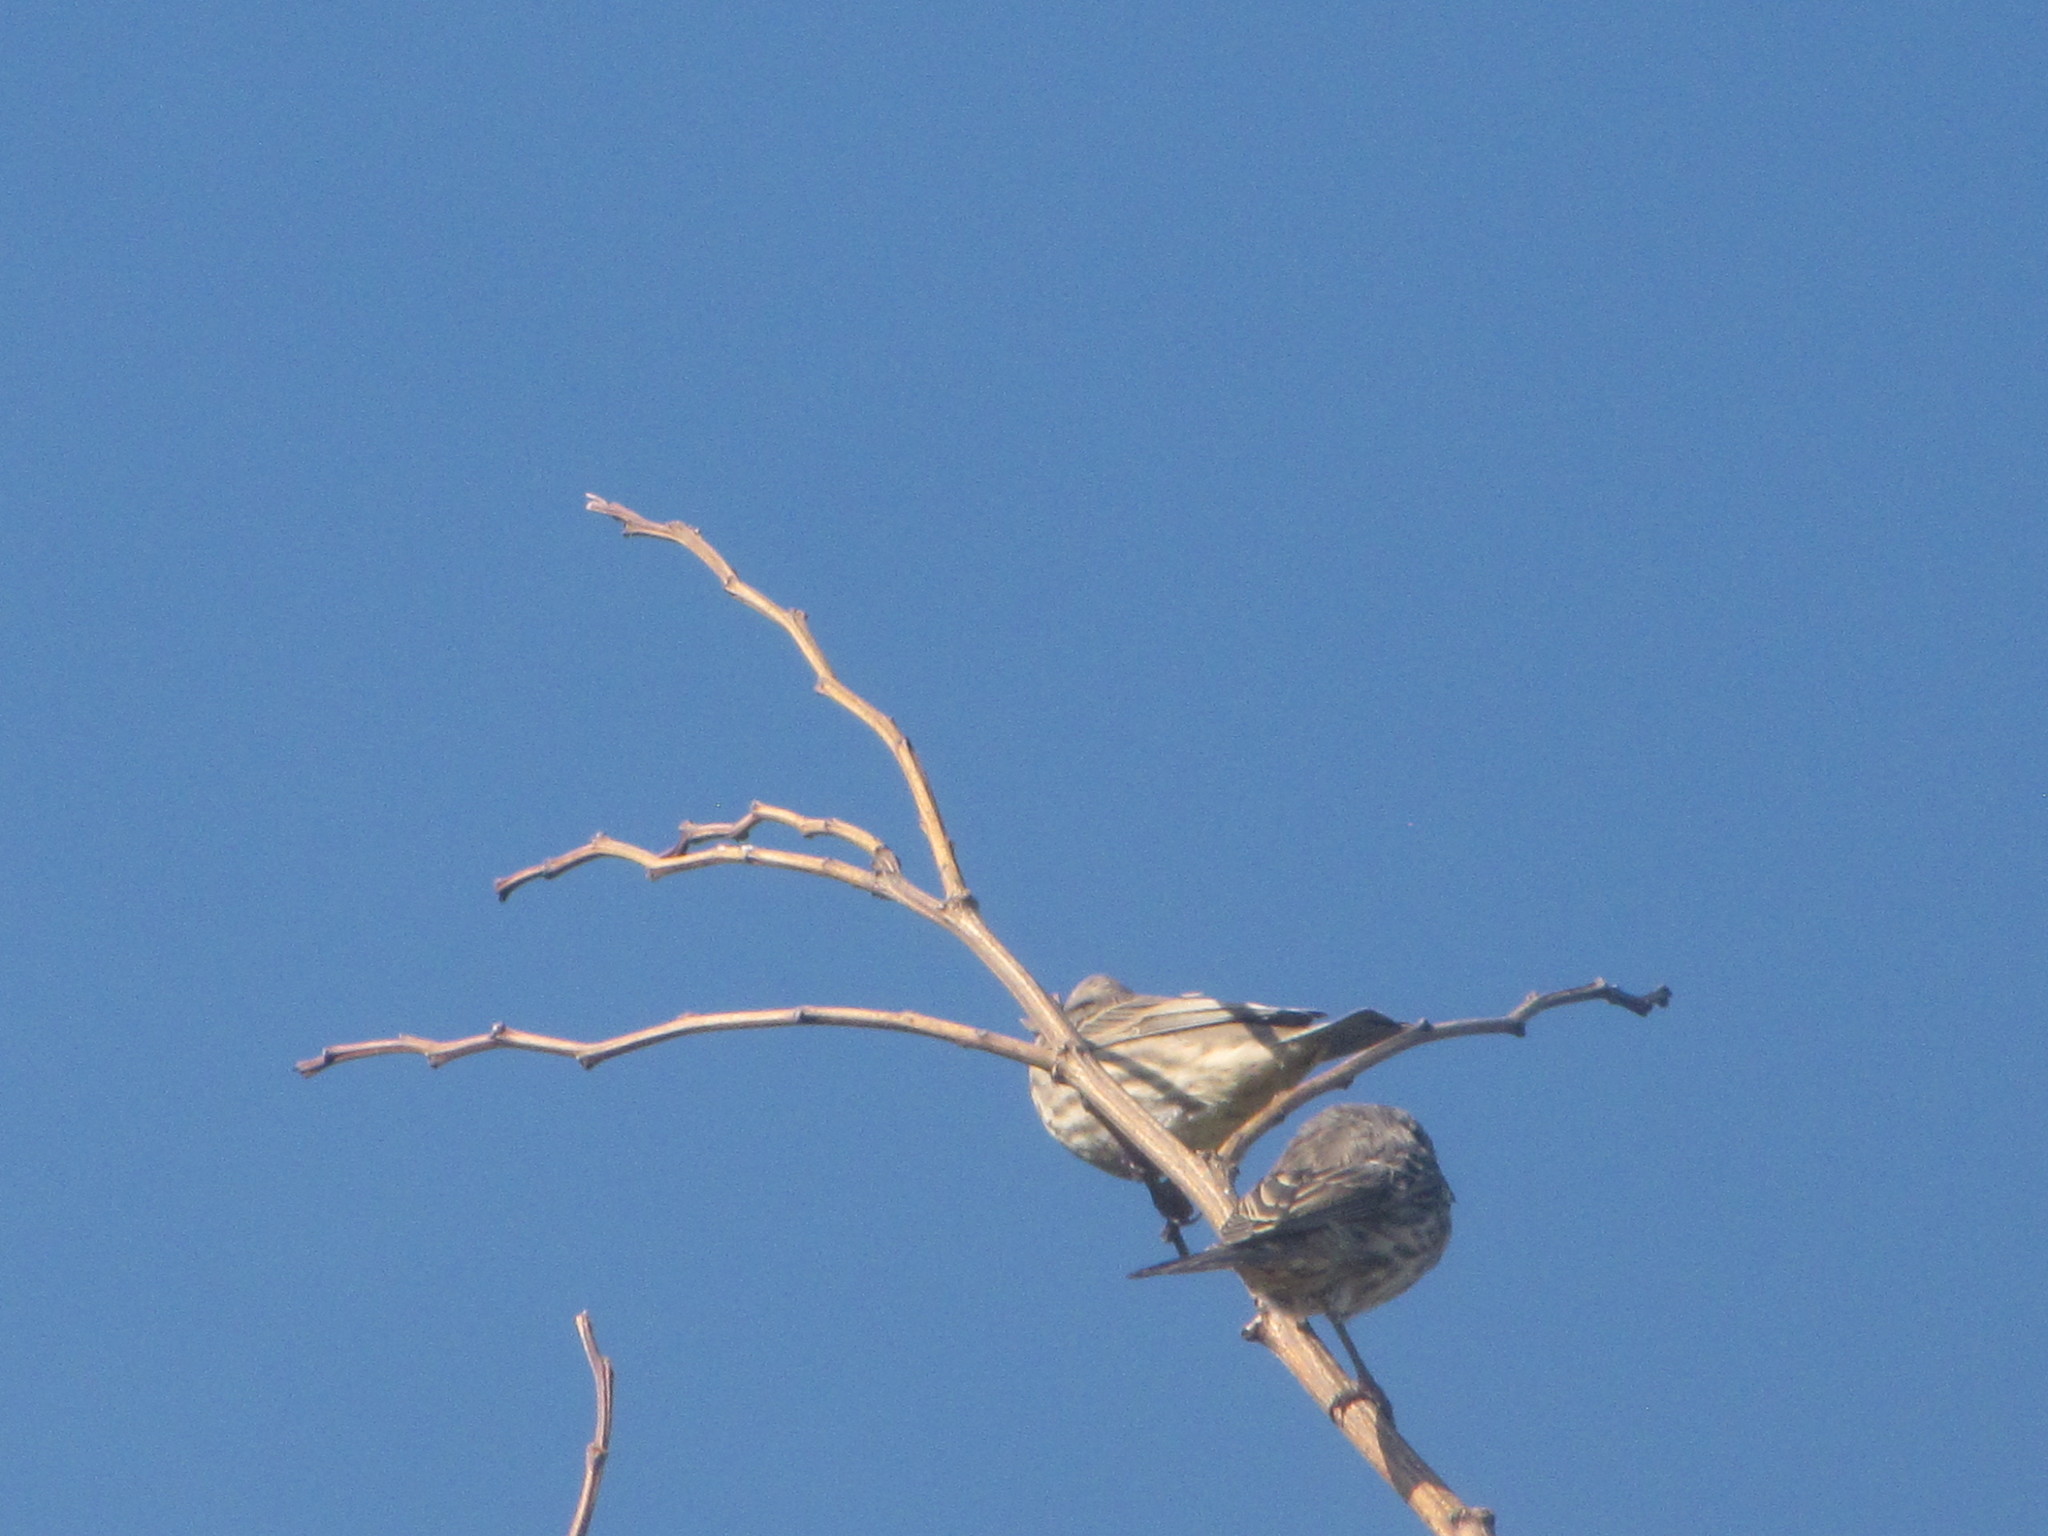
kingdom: Animalia
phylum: Chordata
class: Aves
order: Passeriformes
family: Fringillidae
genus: Haemorhous
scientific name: Haemorhous mexicanus
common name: House finch
